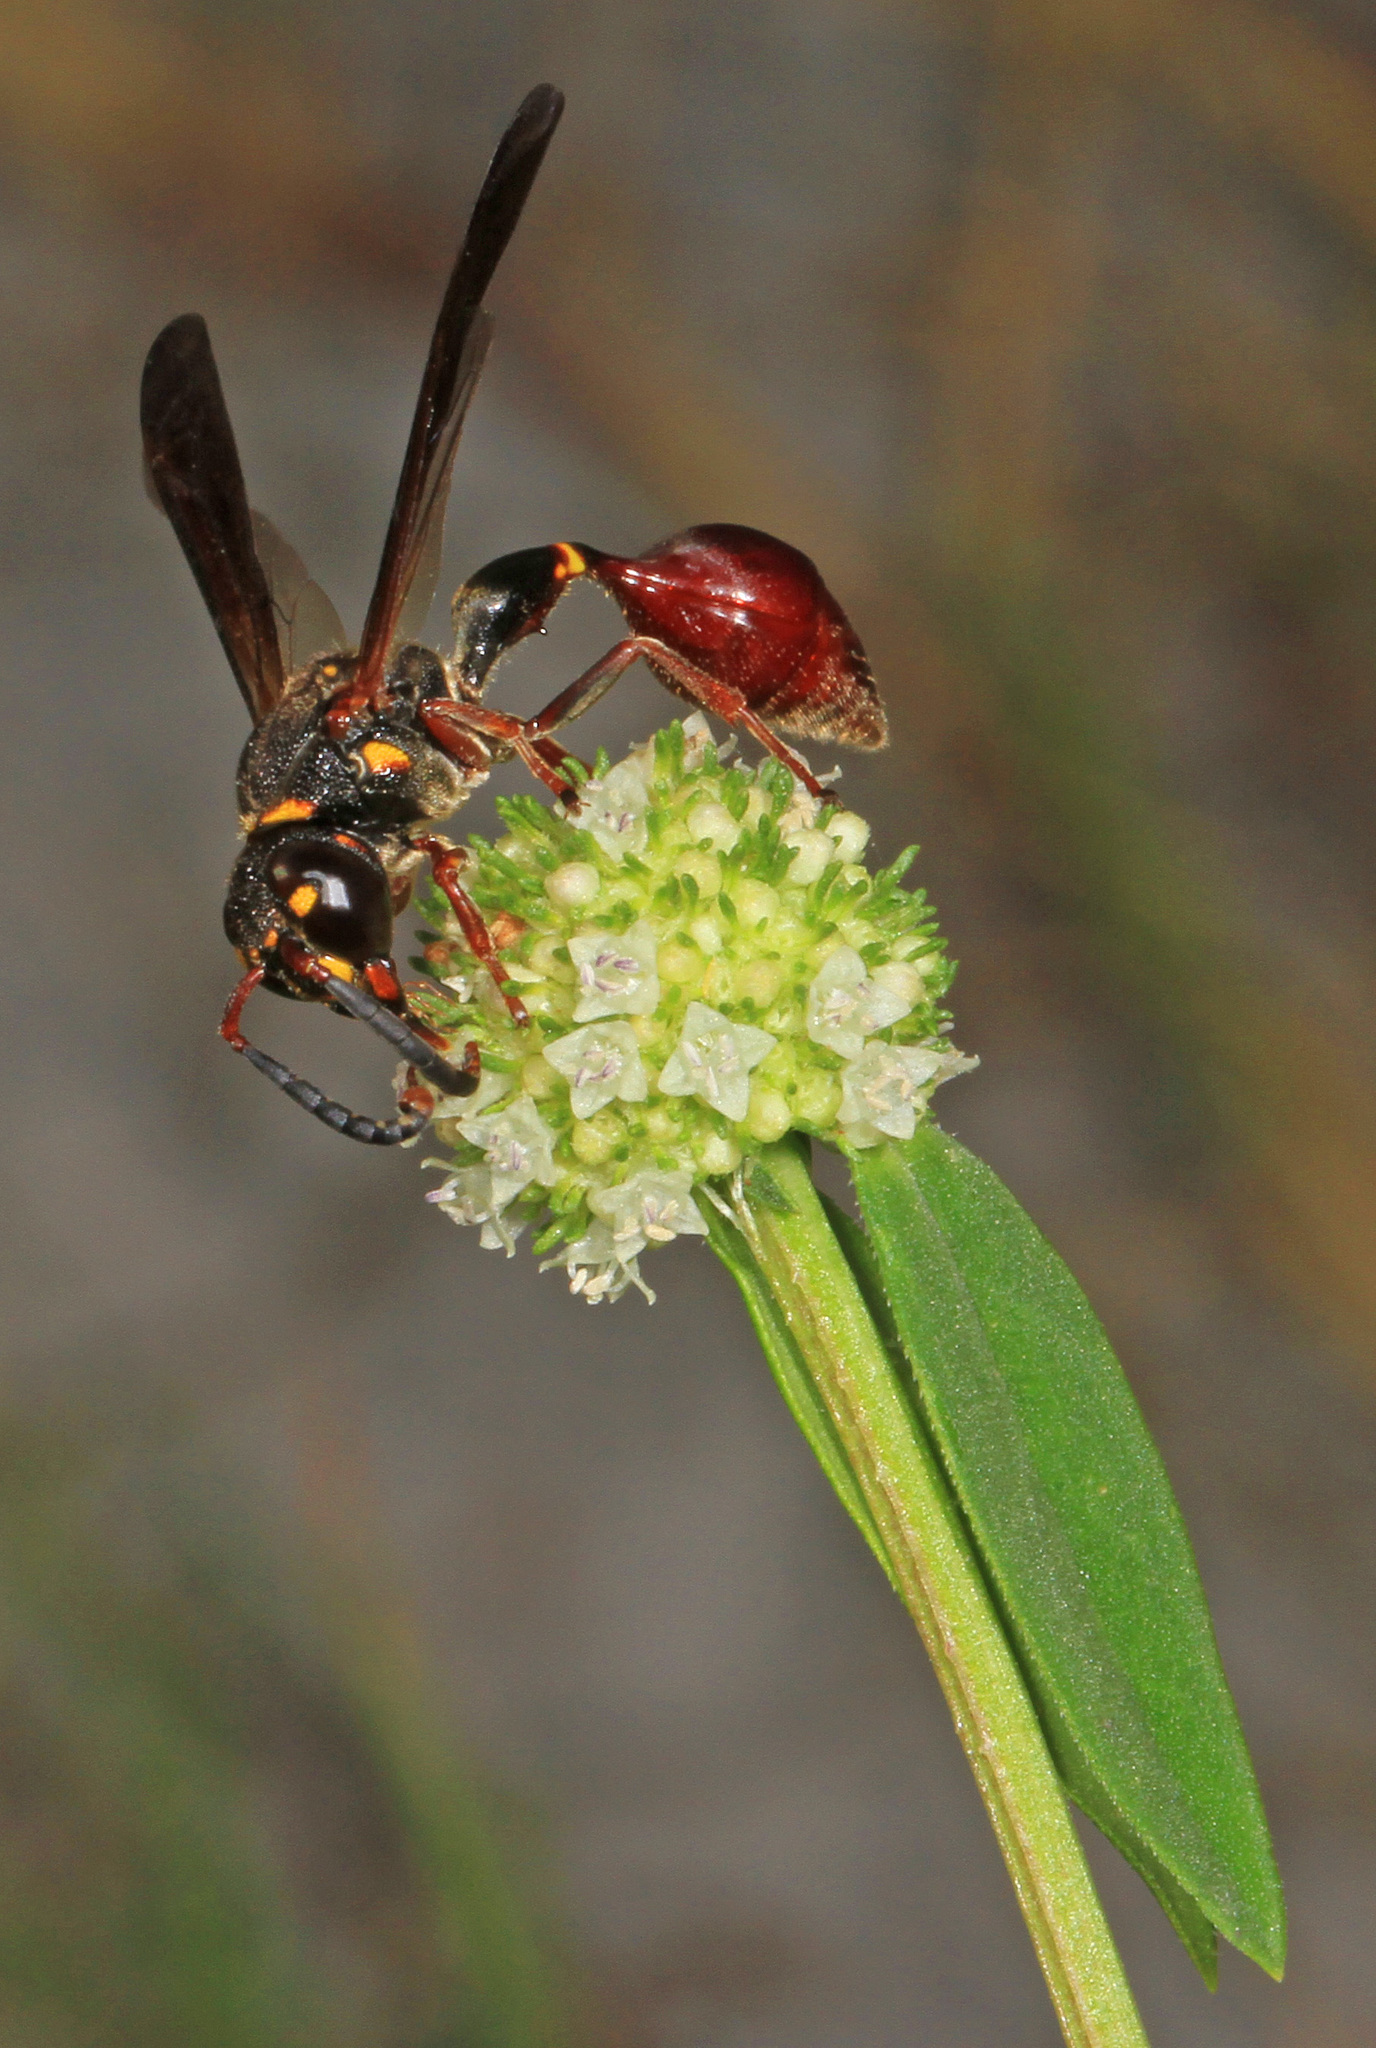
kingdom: Animalia
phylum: Arthropoda
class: Insecta
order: Hymenoptera
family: Eumenidae
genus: Zethus
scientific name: Zethus slossonae
